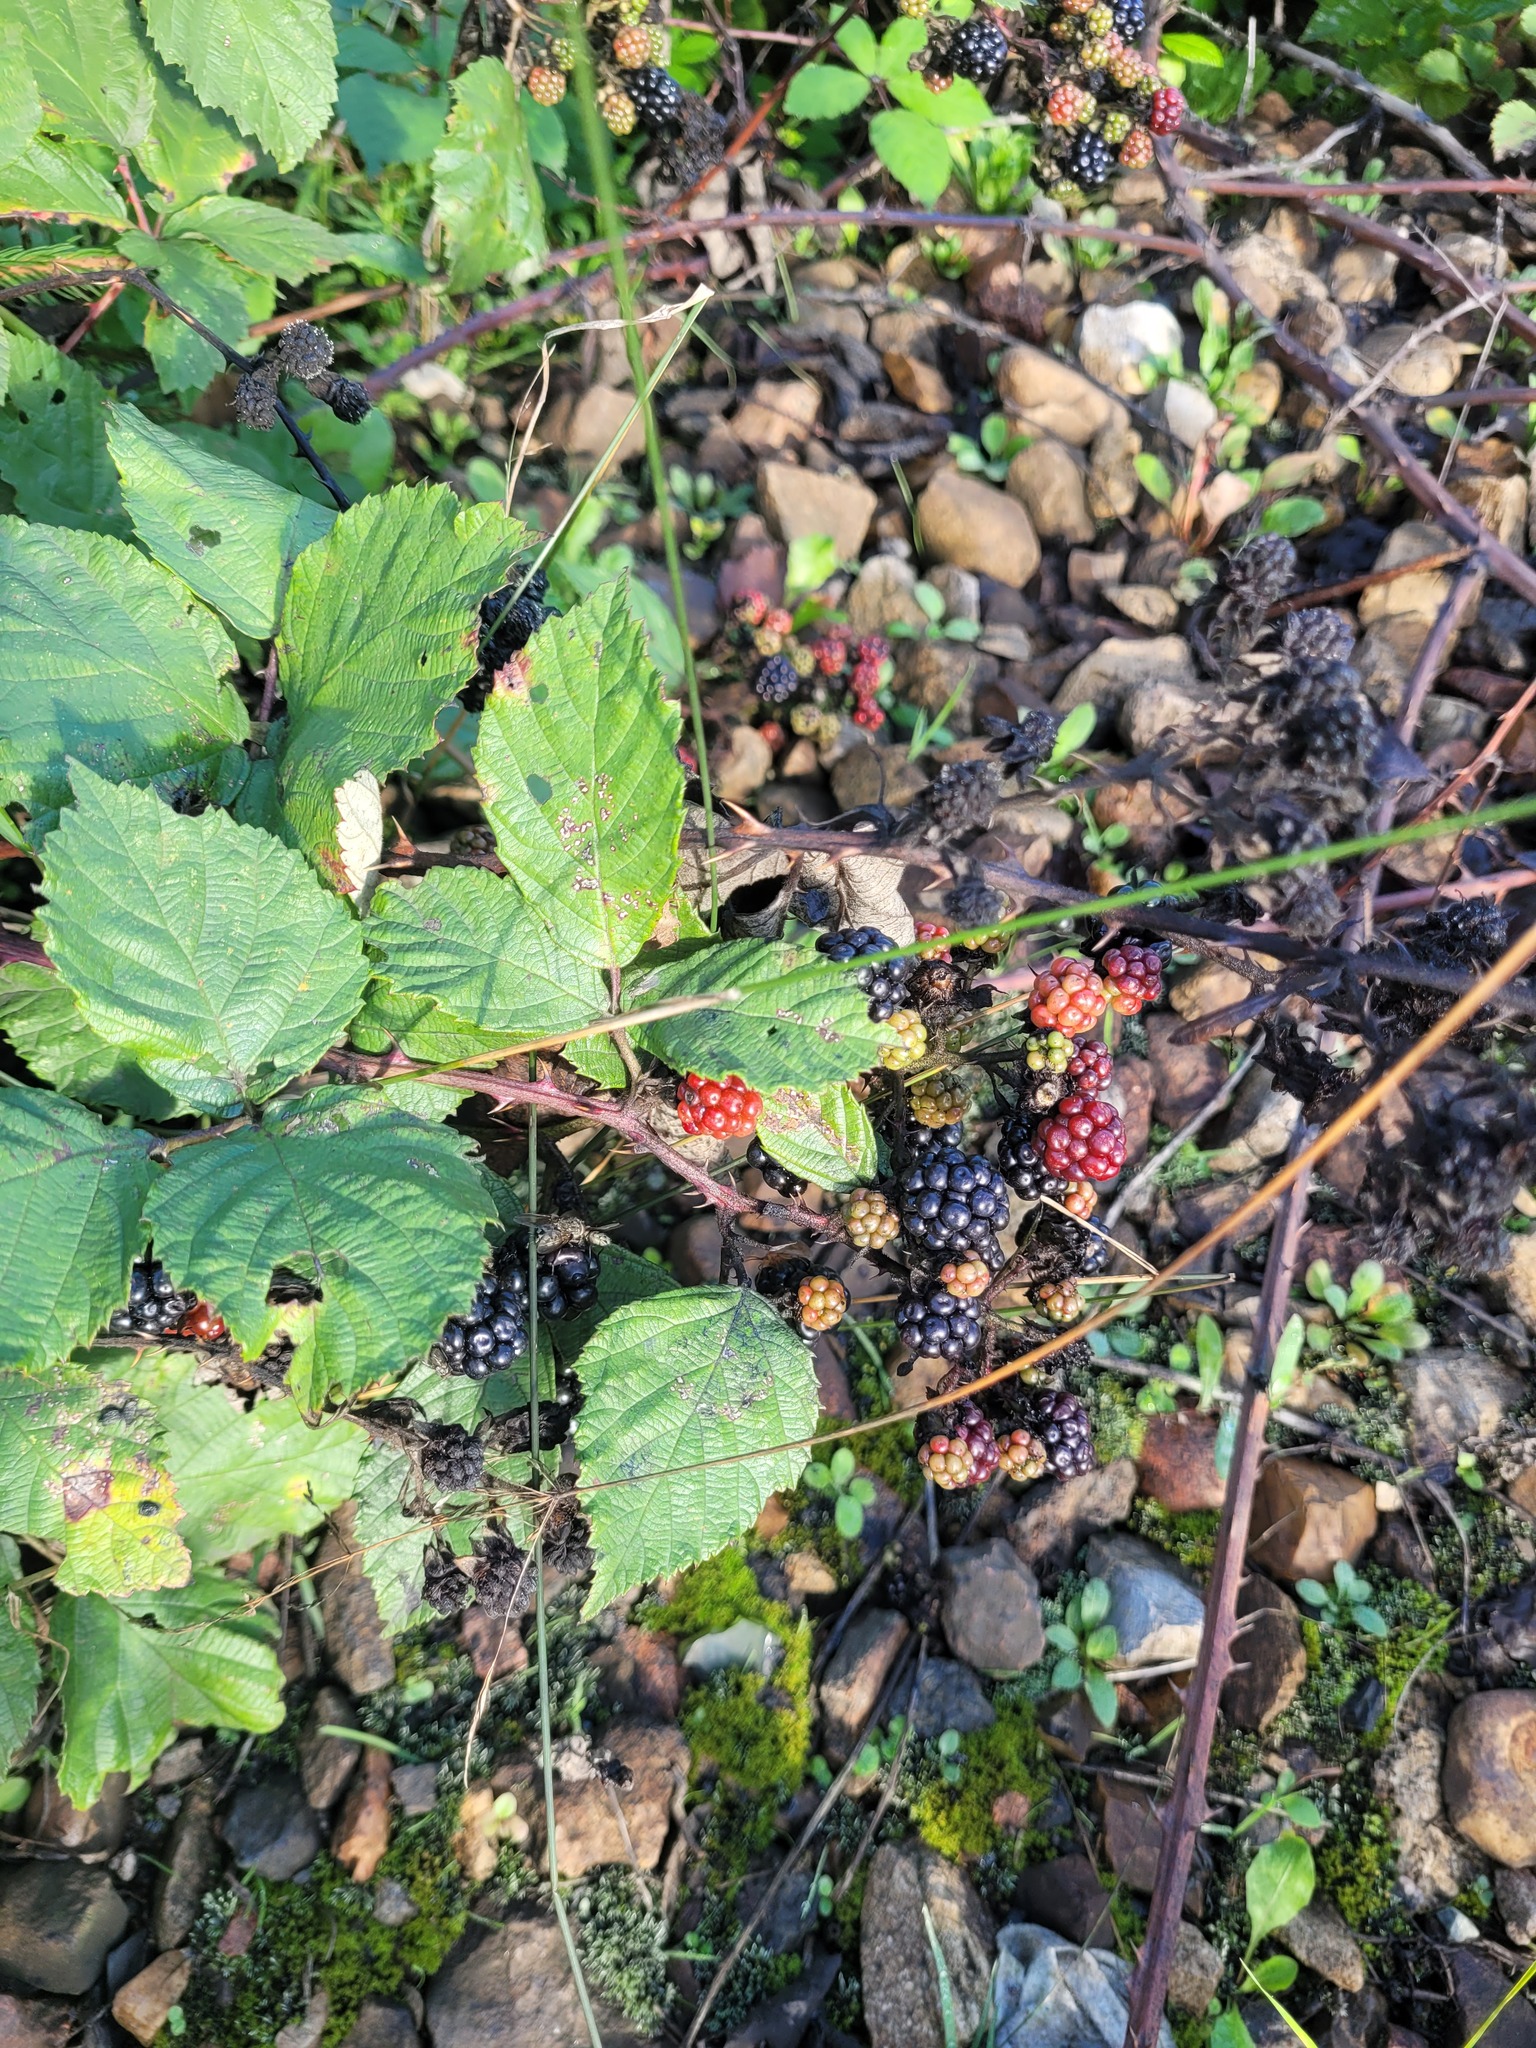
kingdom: Plantae
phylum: Tracheophyta
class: Magnoliopsida
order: Rosales
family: Rosaceae
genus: Rubus
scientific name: Rubus procerus
